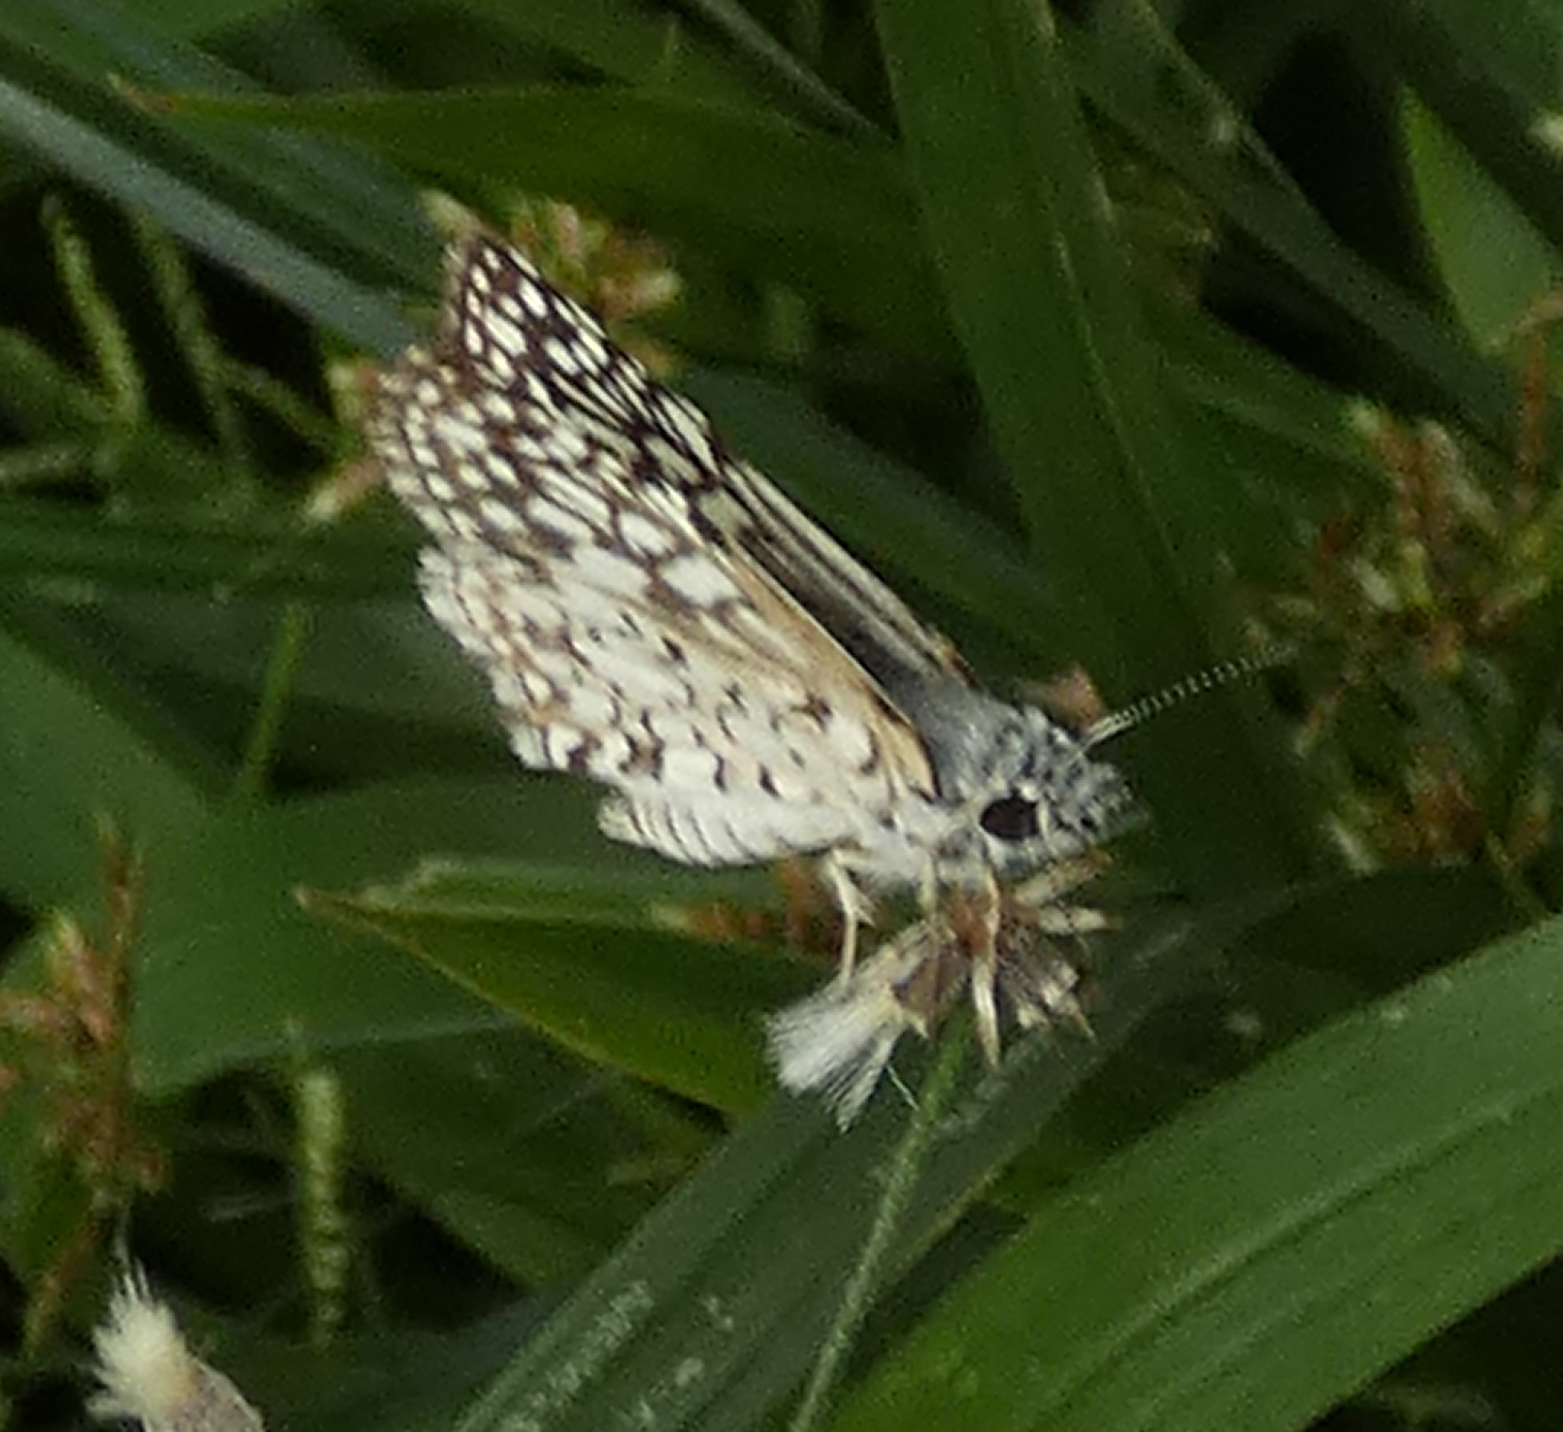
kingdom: Animalia
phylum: Arthropoda
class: Insecta
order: Lepidoptera
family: Hesperiidae
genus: Pyrgus
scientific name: Pyrgus oileus
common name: Tropical checkered-skipper
